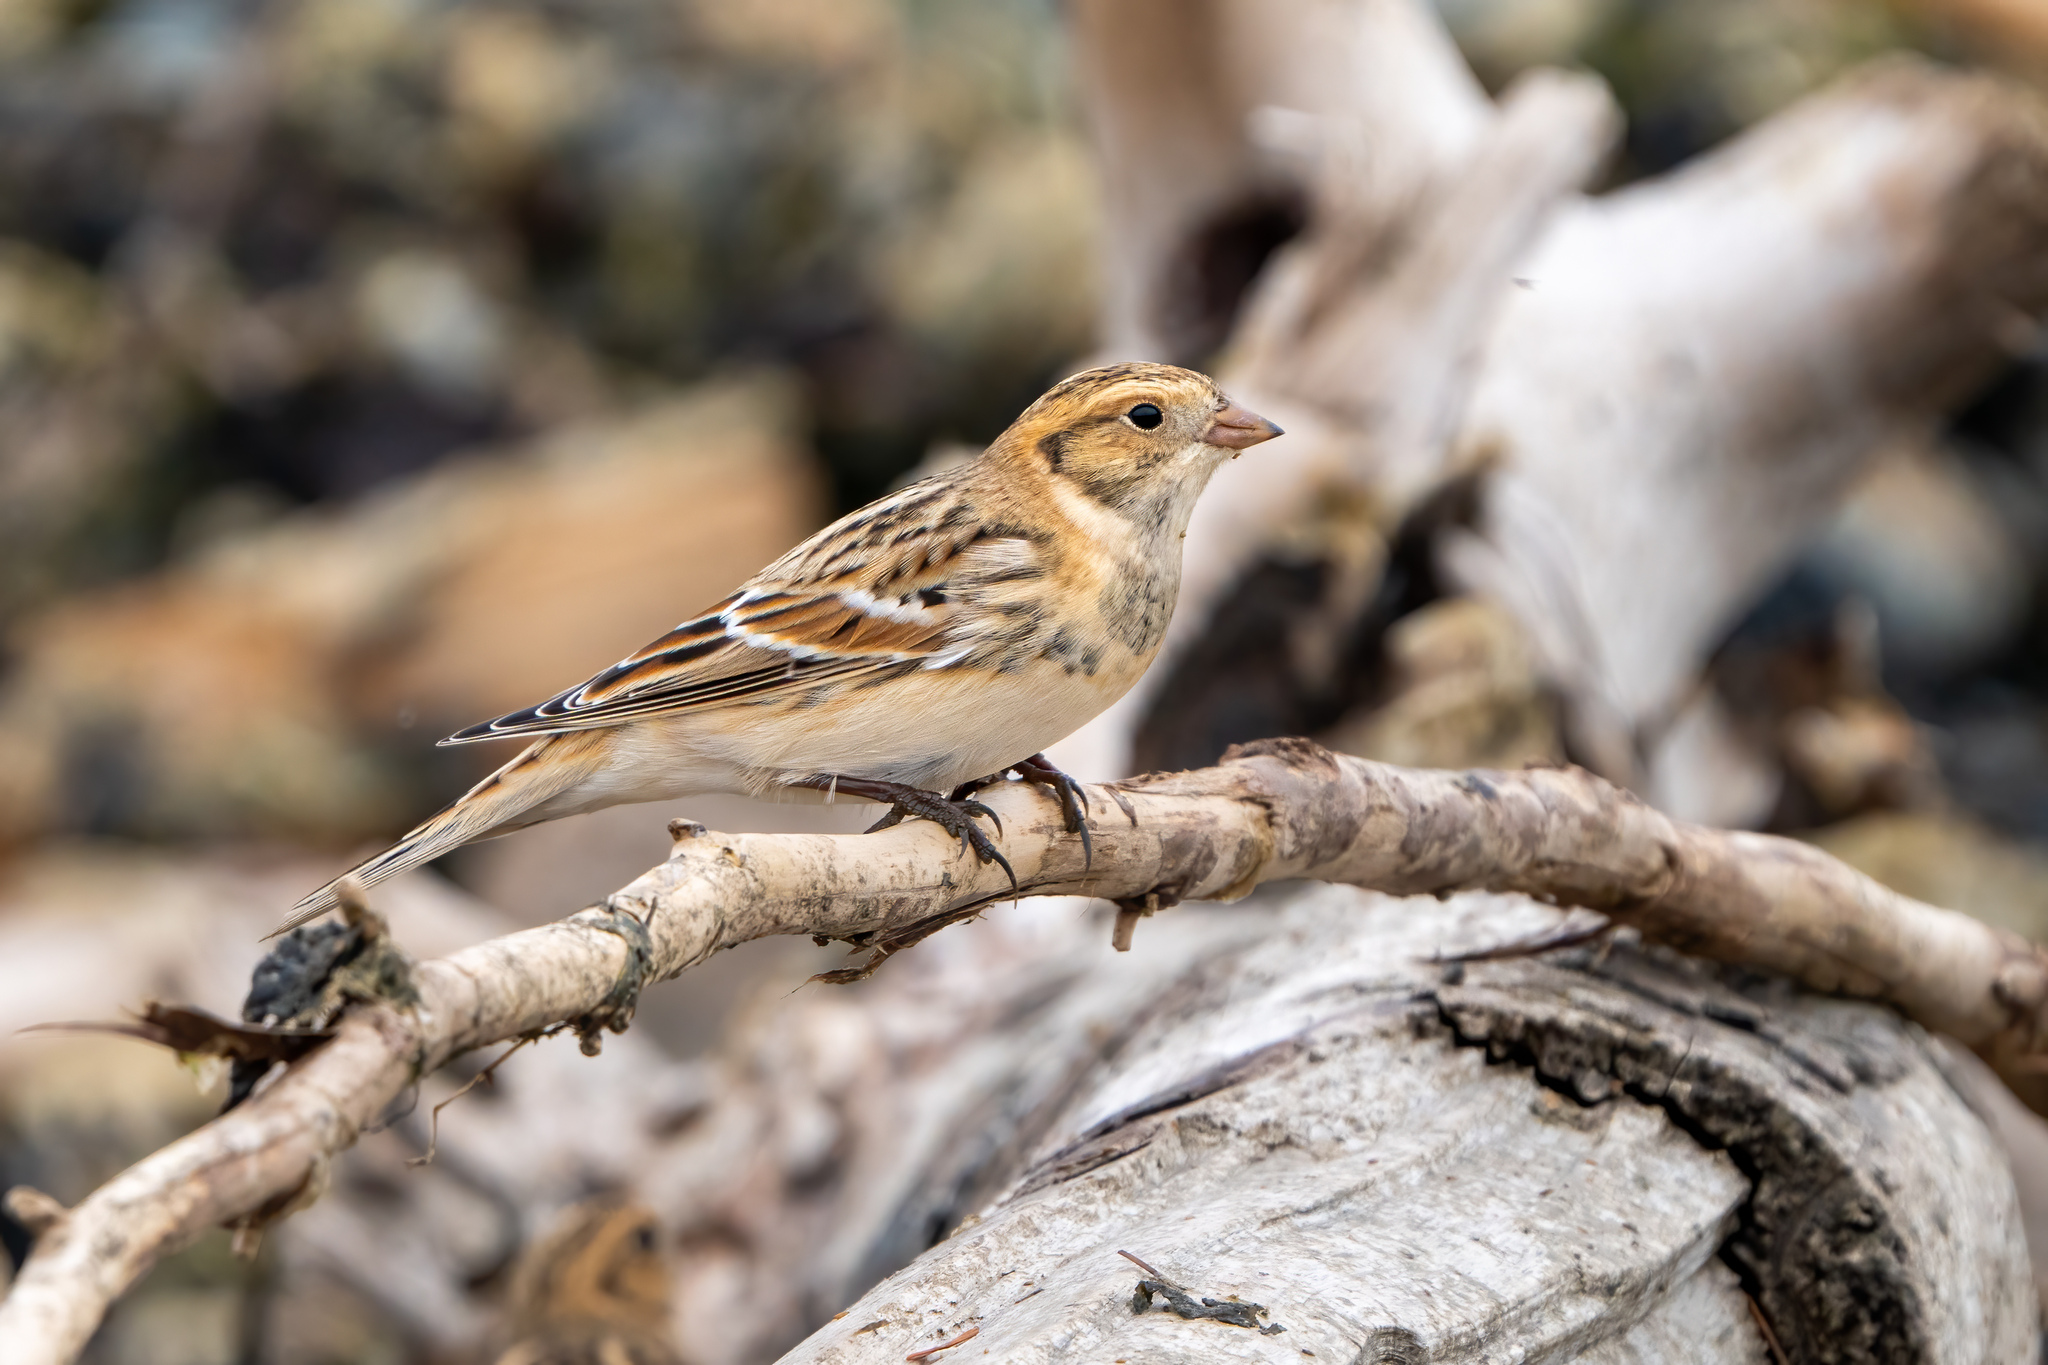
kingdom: Animalia
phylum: Chordata
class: Aves
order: Passeriformes
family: Calcariidae
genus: Calcarius
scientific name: Calcarius lapponicus
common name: Lapland longspur
